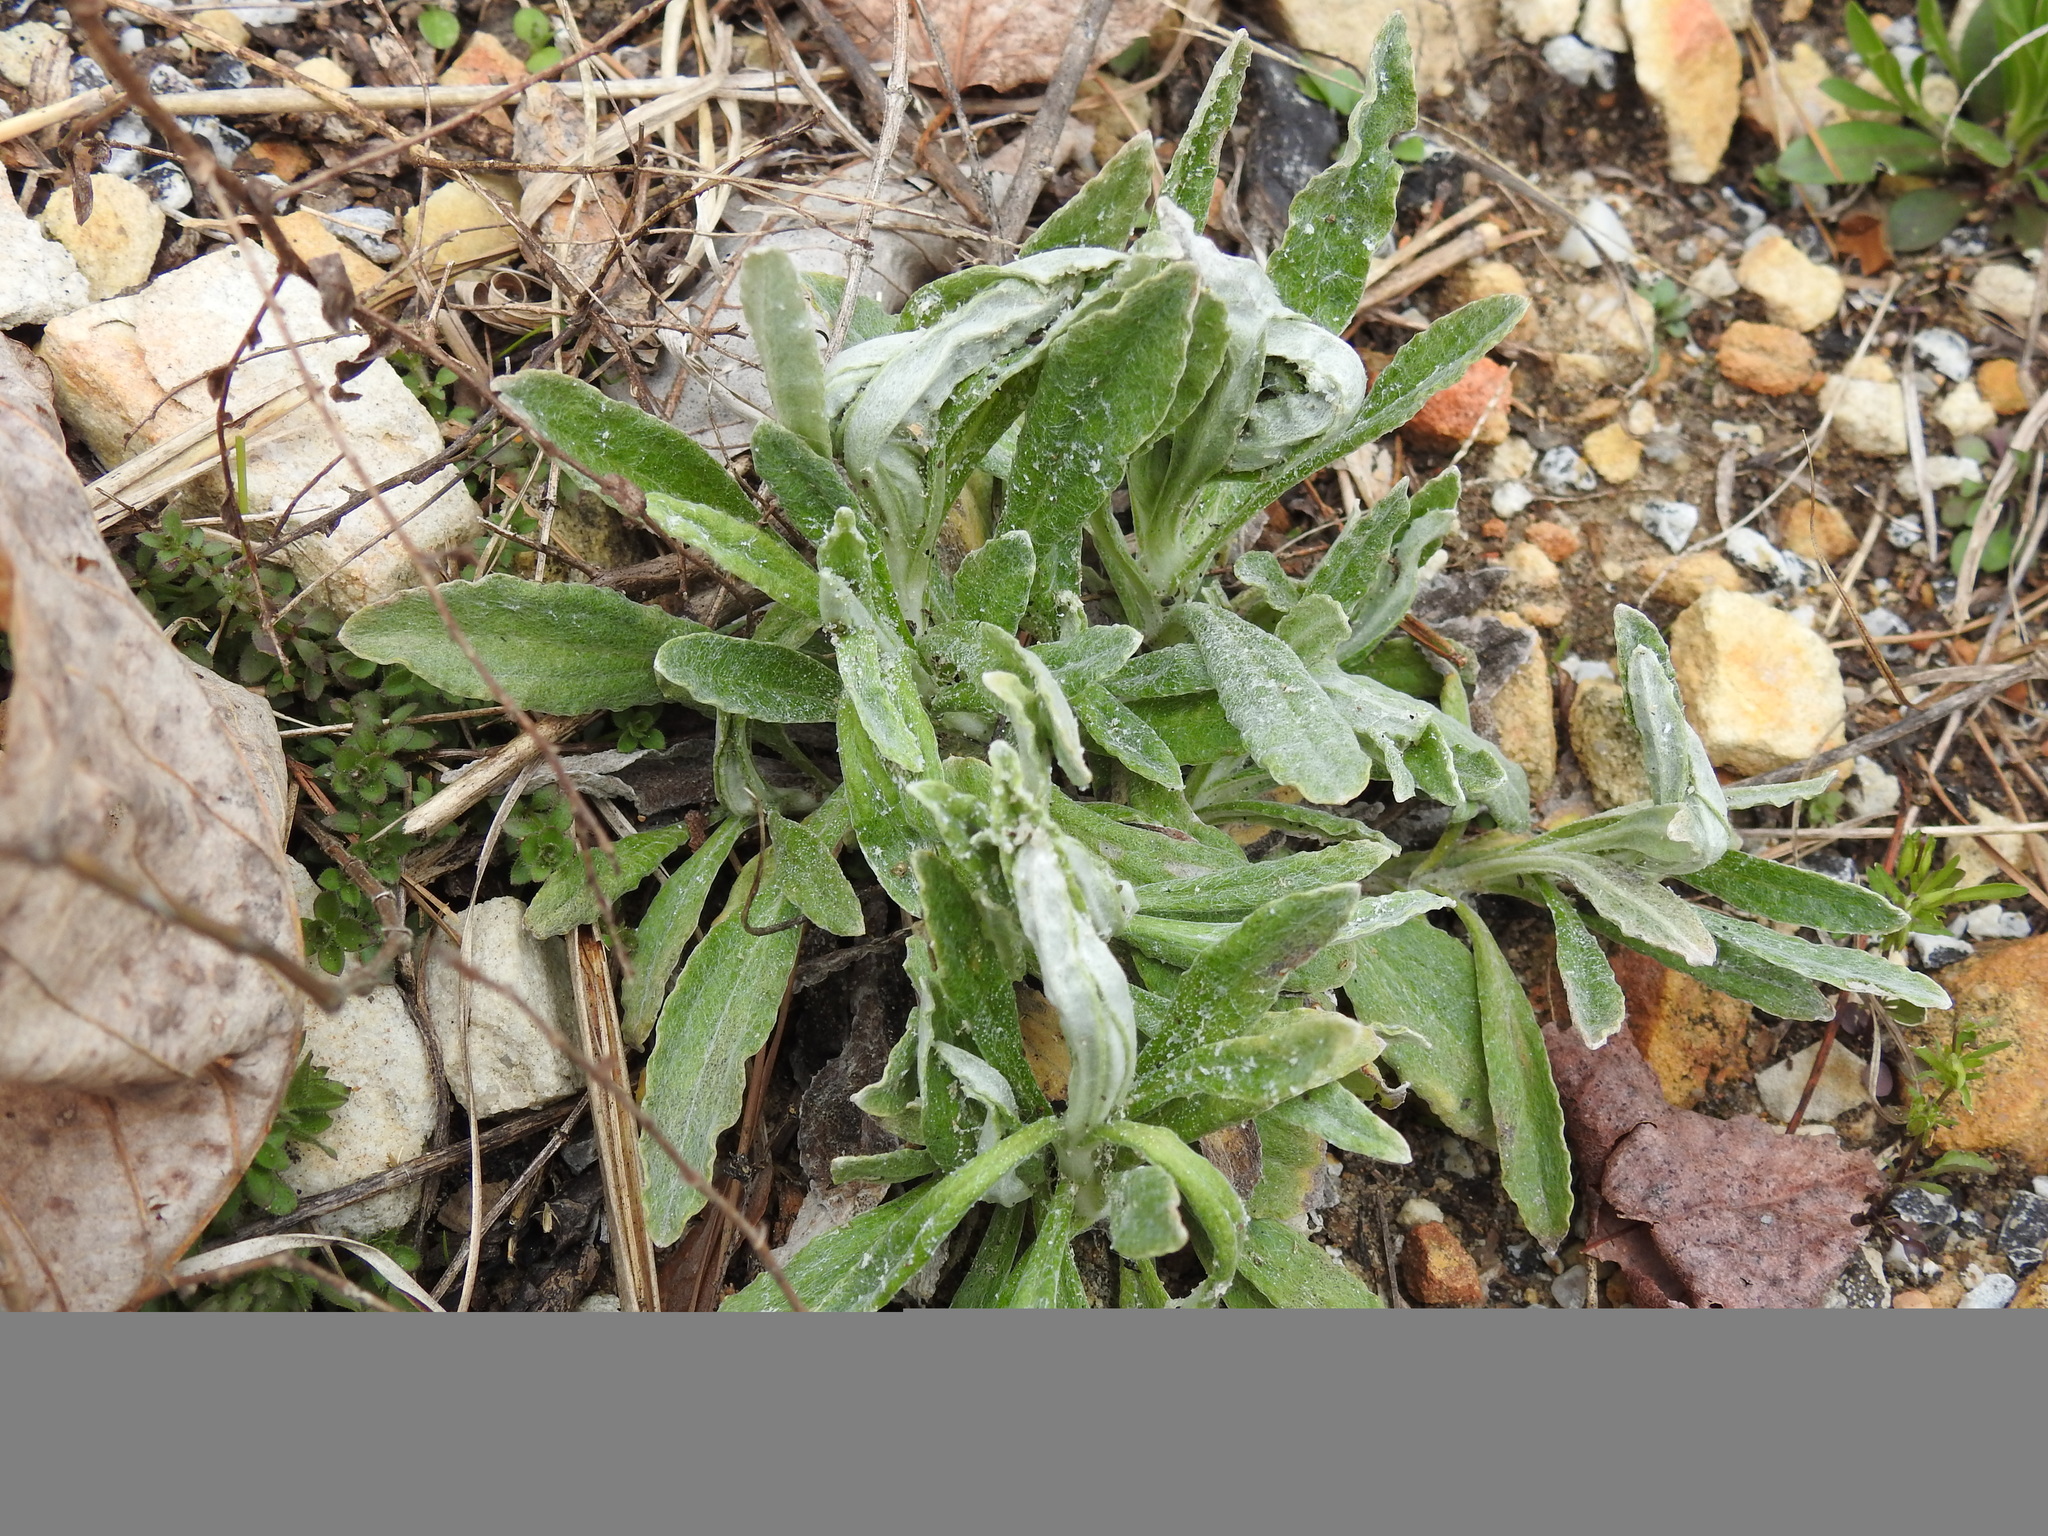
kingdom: Plantae
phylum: Tracheophyta
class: Magnoliopsida
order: Asterales
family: Asteraceae
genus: Pseudognaphalium
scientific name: Pseudognaphalium obtusifolium
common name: Eastern rabbit-tobacco
